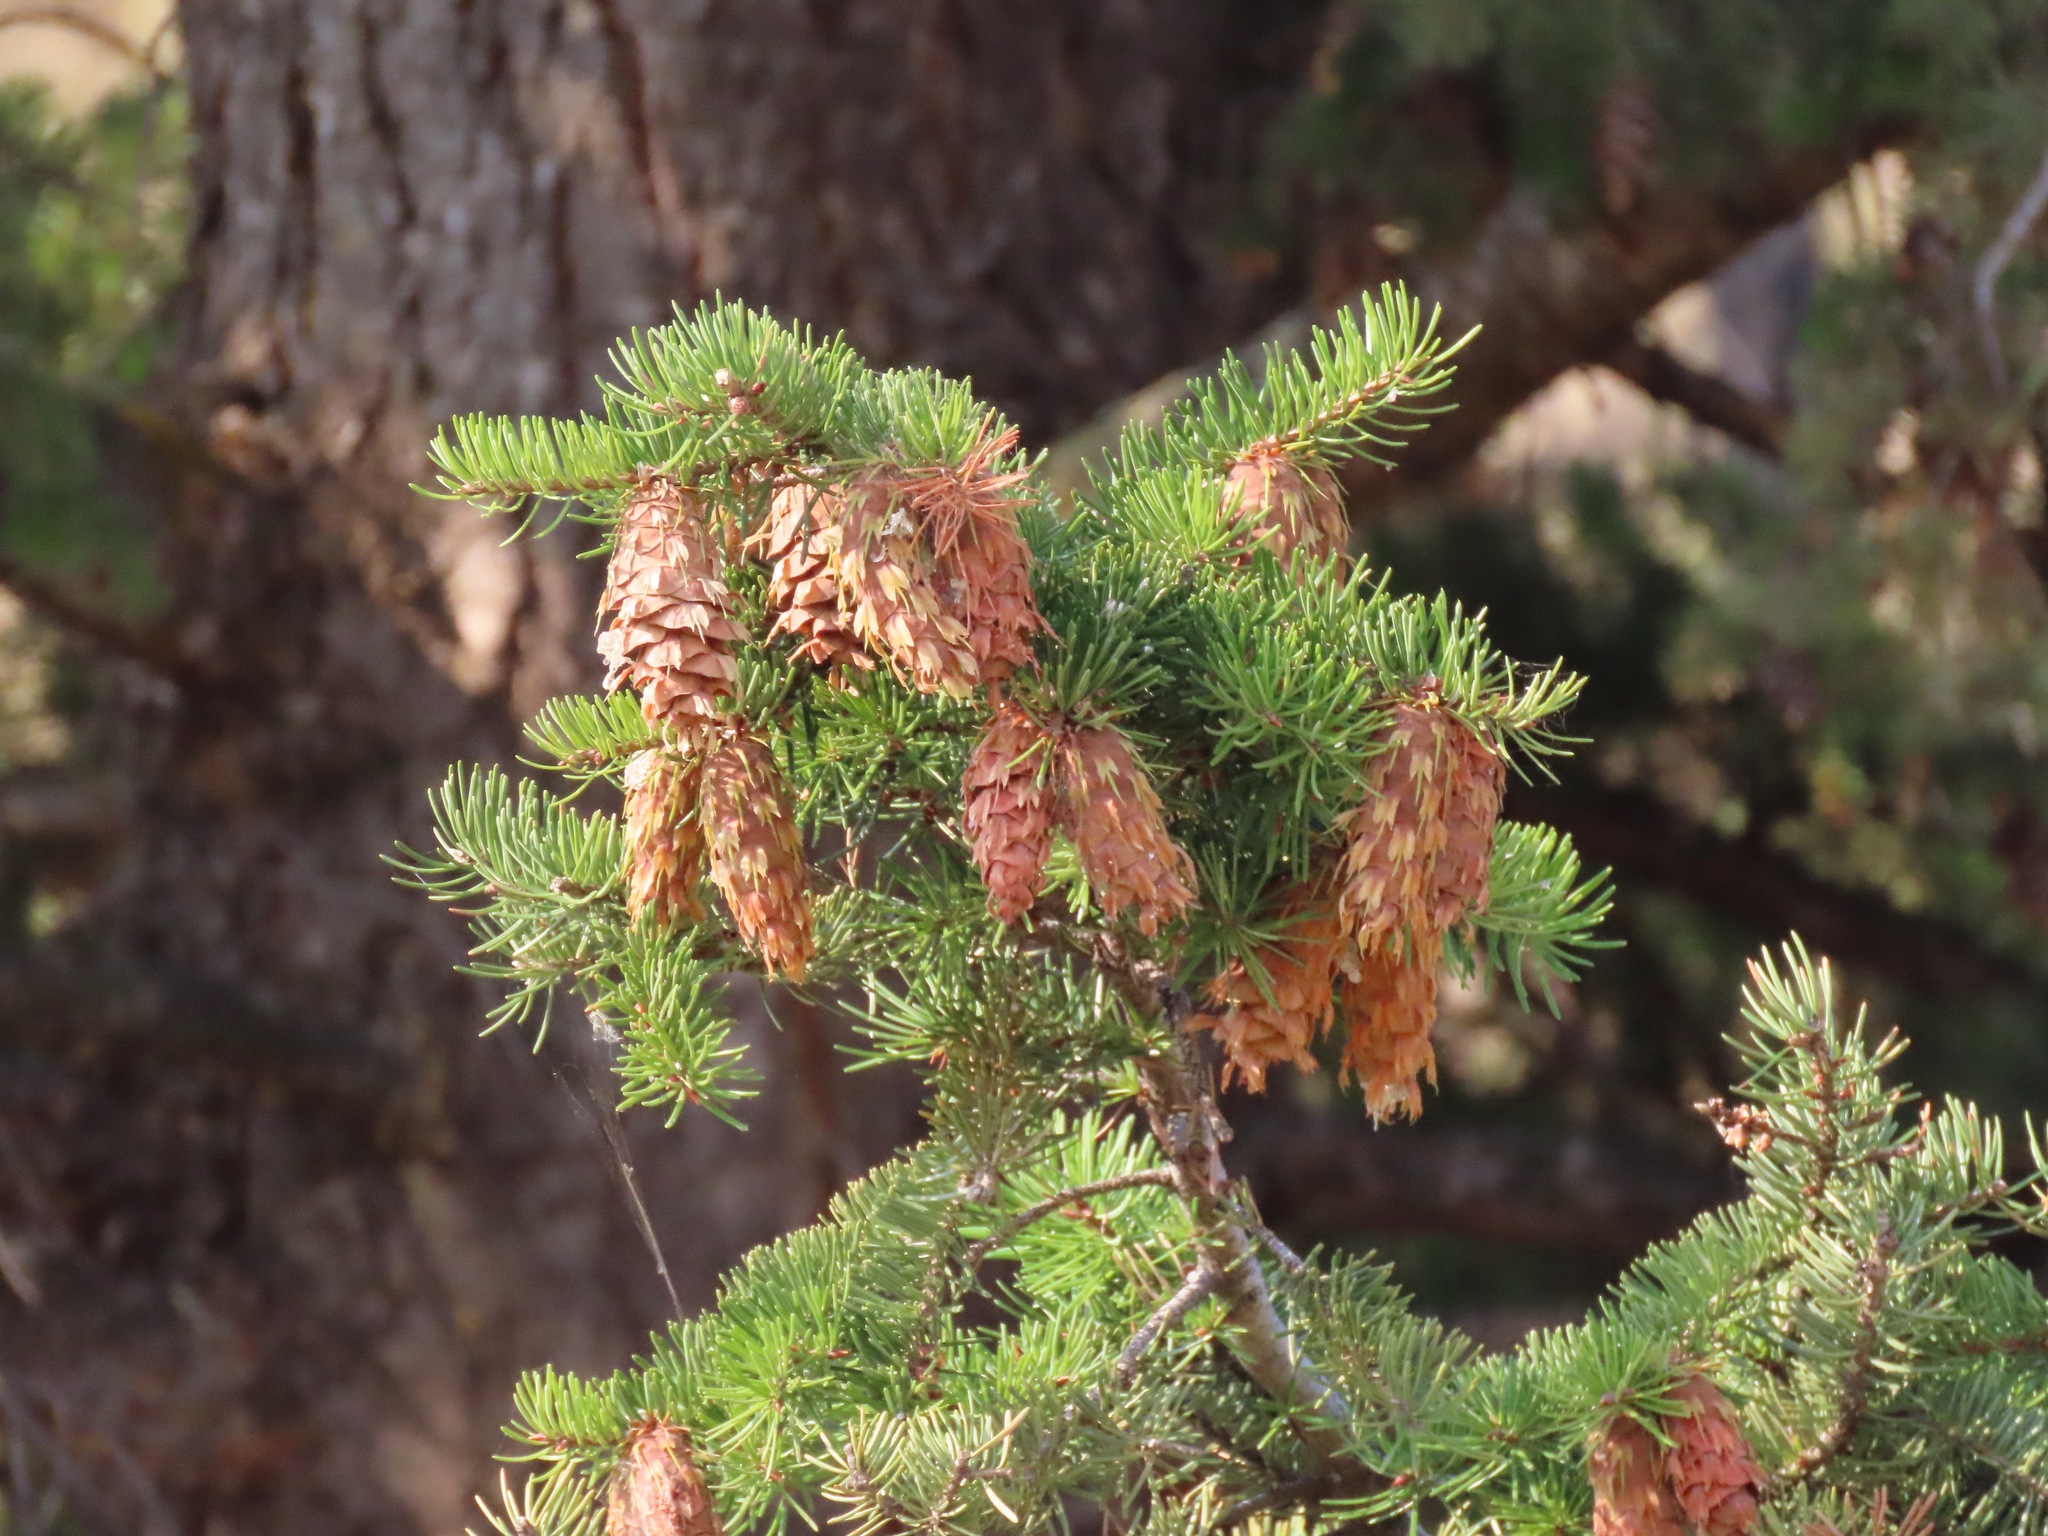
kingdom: Plantae
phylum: Tracheophyta
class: Pinopsida
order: Pinales
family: Pinaceae
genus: Pseudotsuga
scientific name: Pseudotsuga menziesii
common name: Douglas fir
